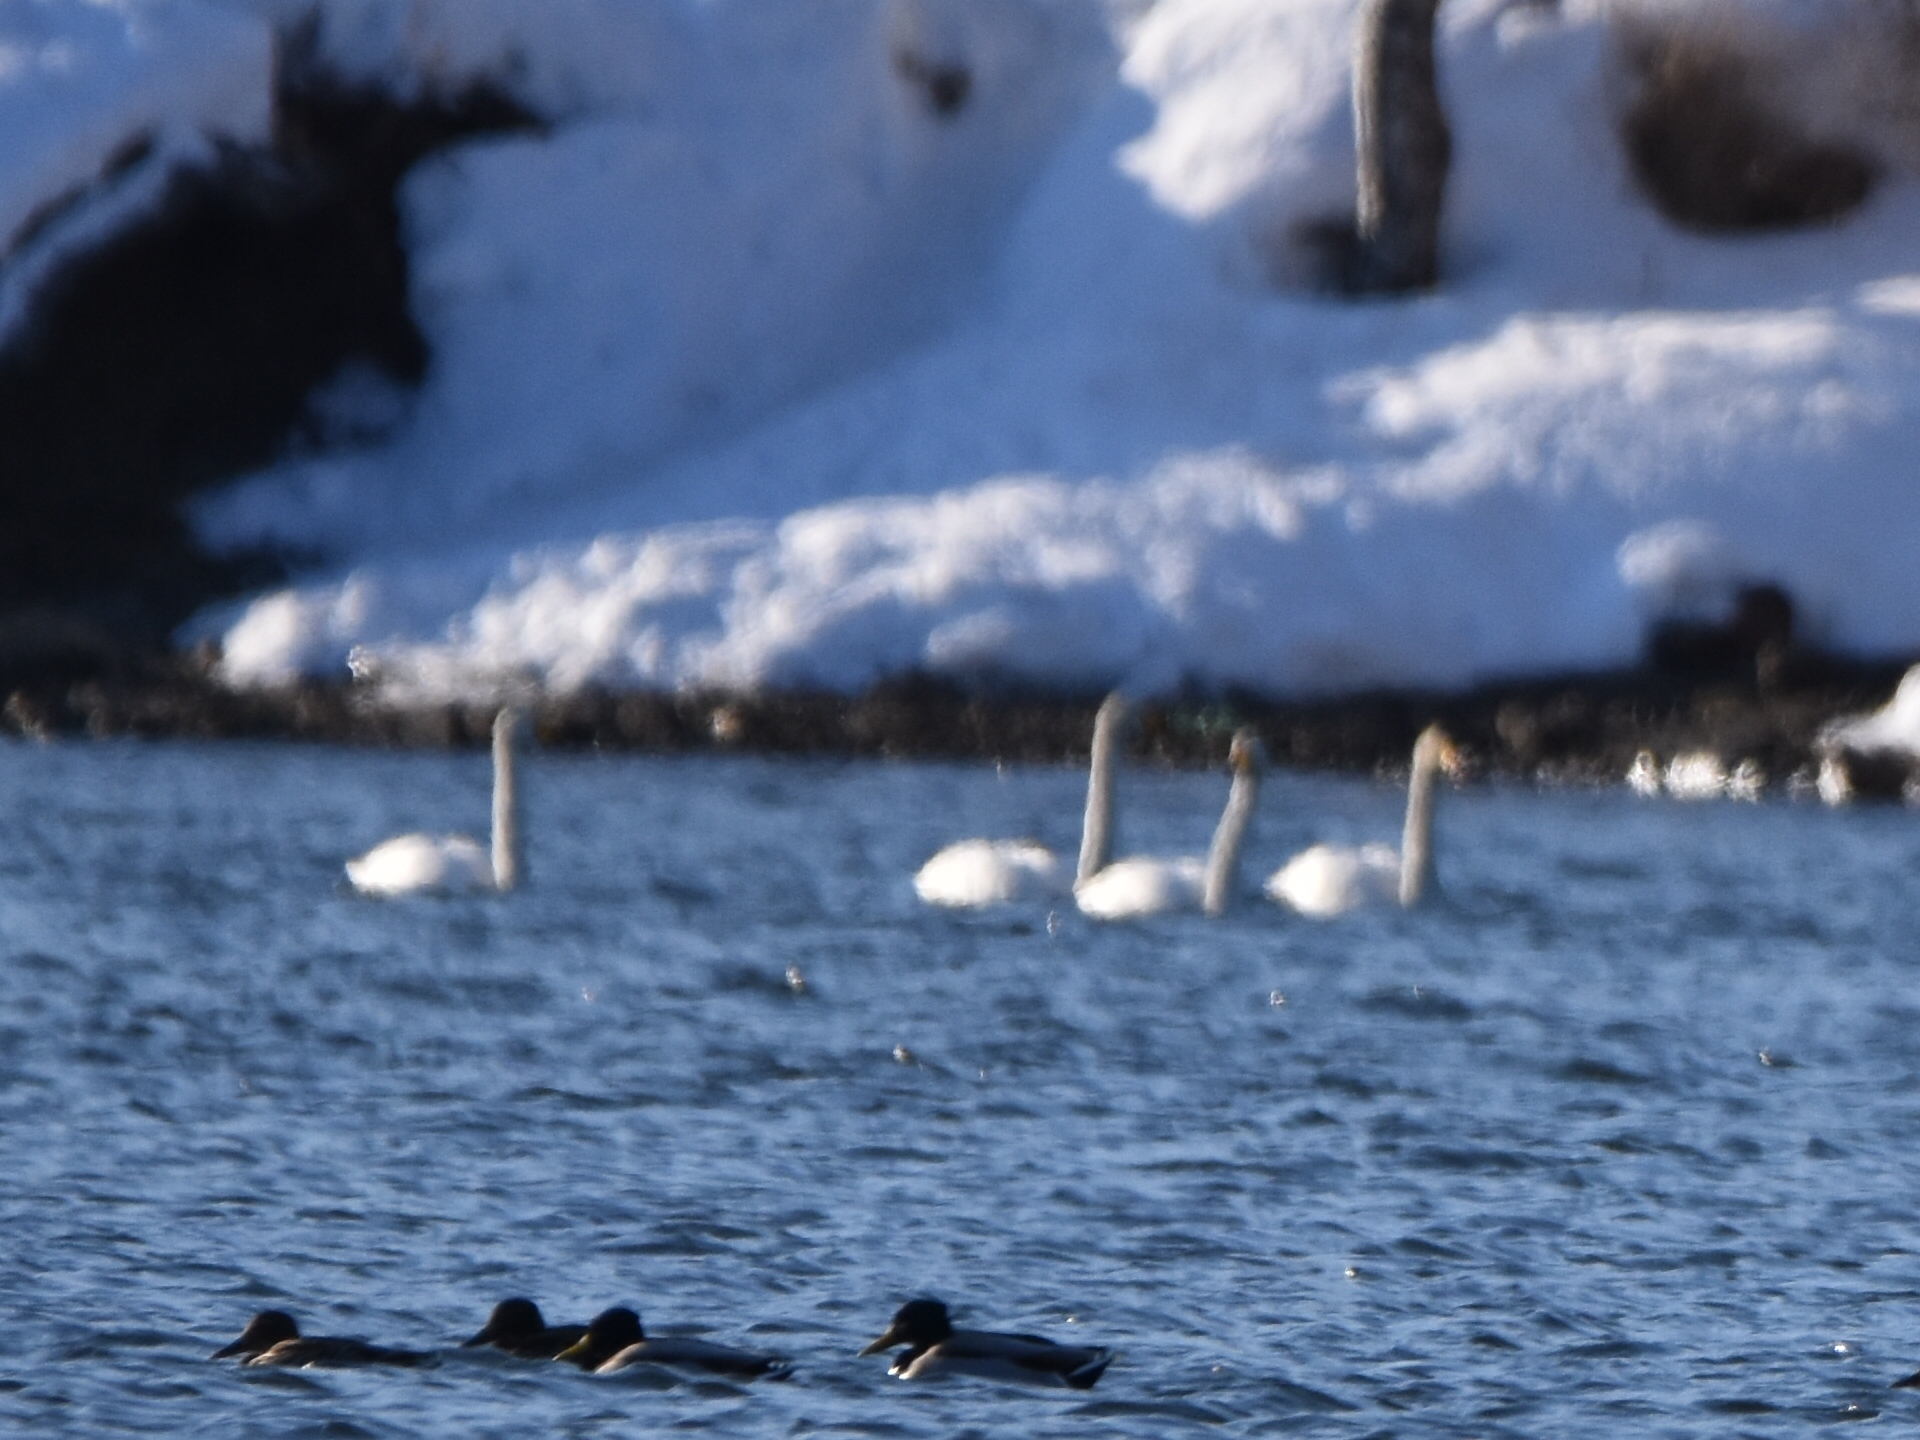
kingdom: Animalia
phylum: Chordata
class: Aves
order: Anseriformes
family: Anatidae
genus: Cygnus
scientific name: Cygnus cygnus
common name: Whooper swan
